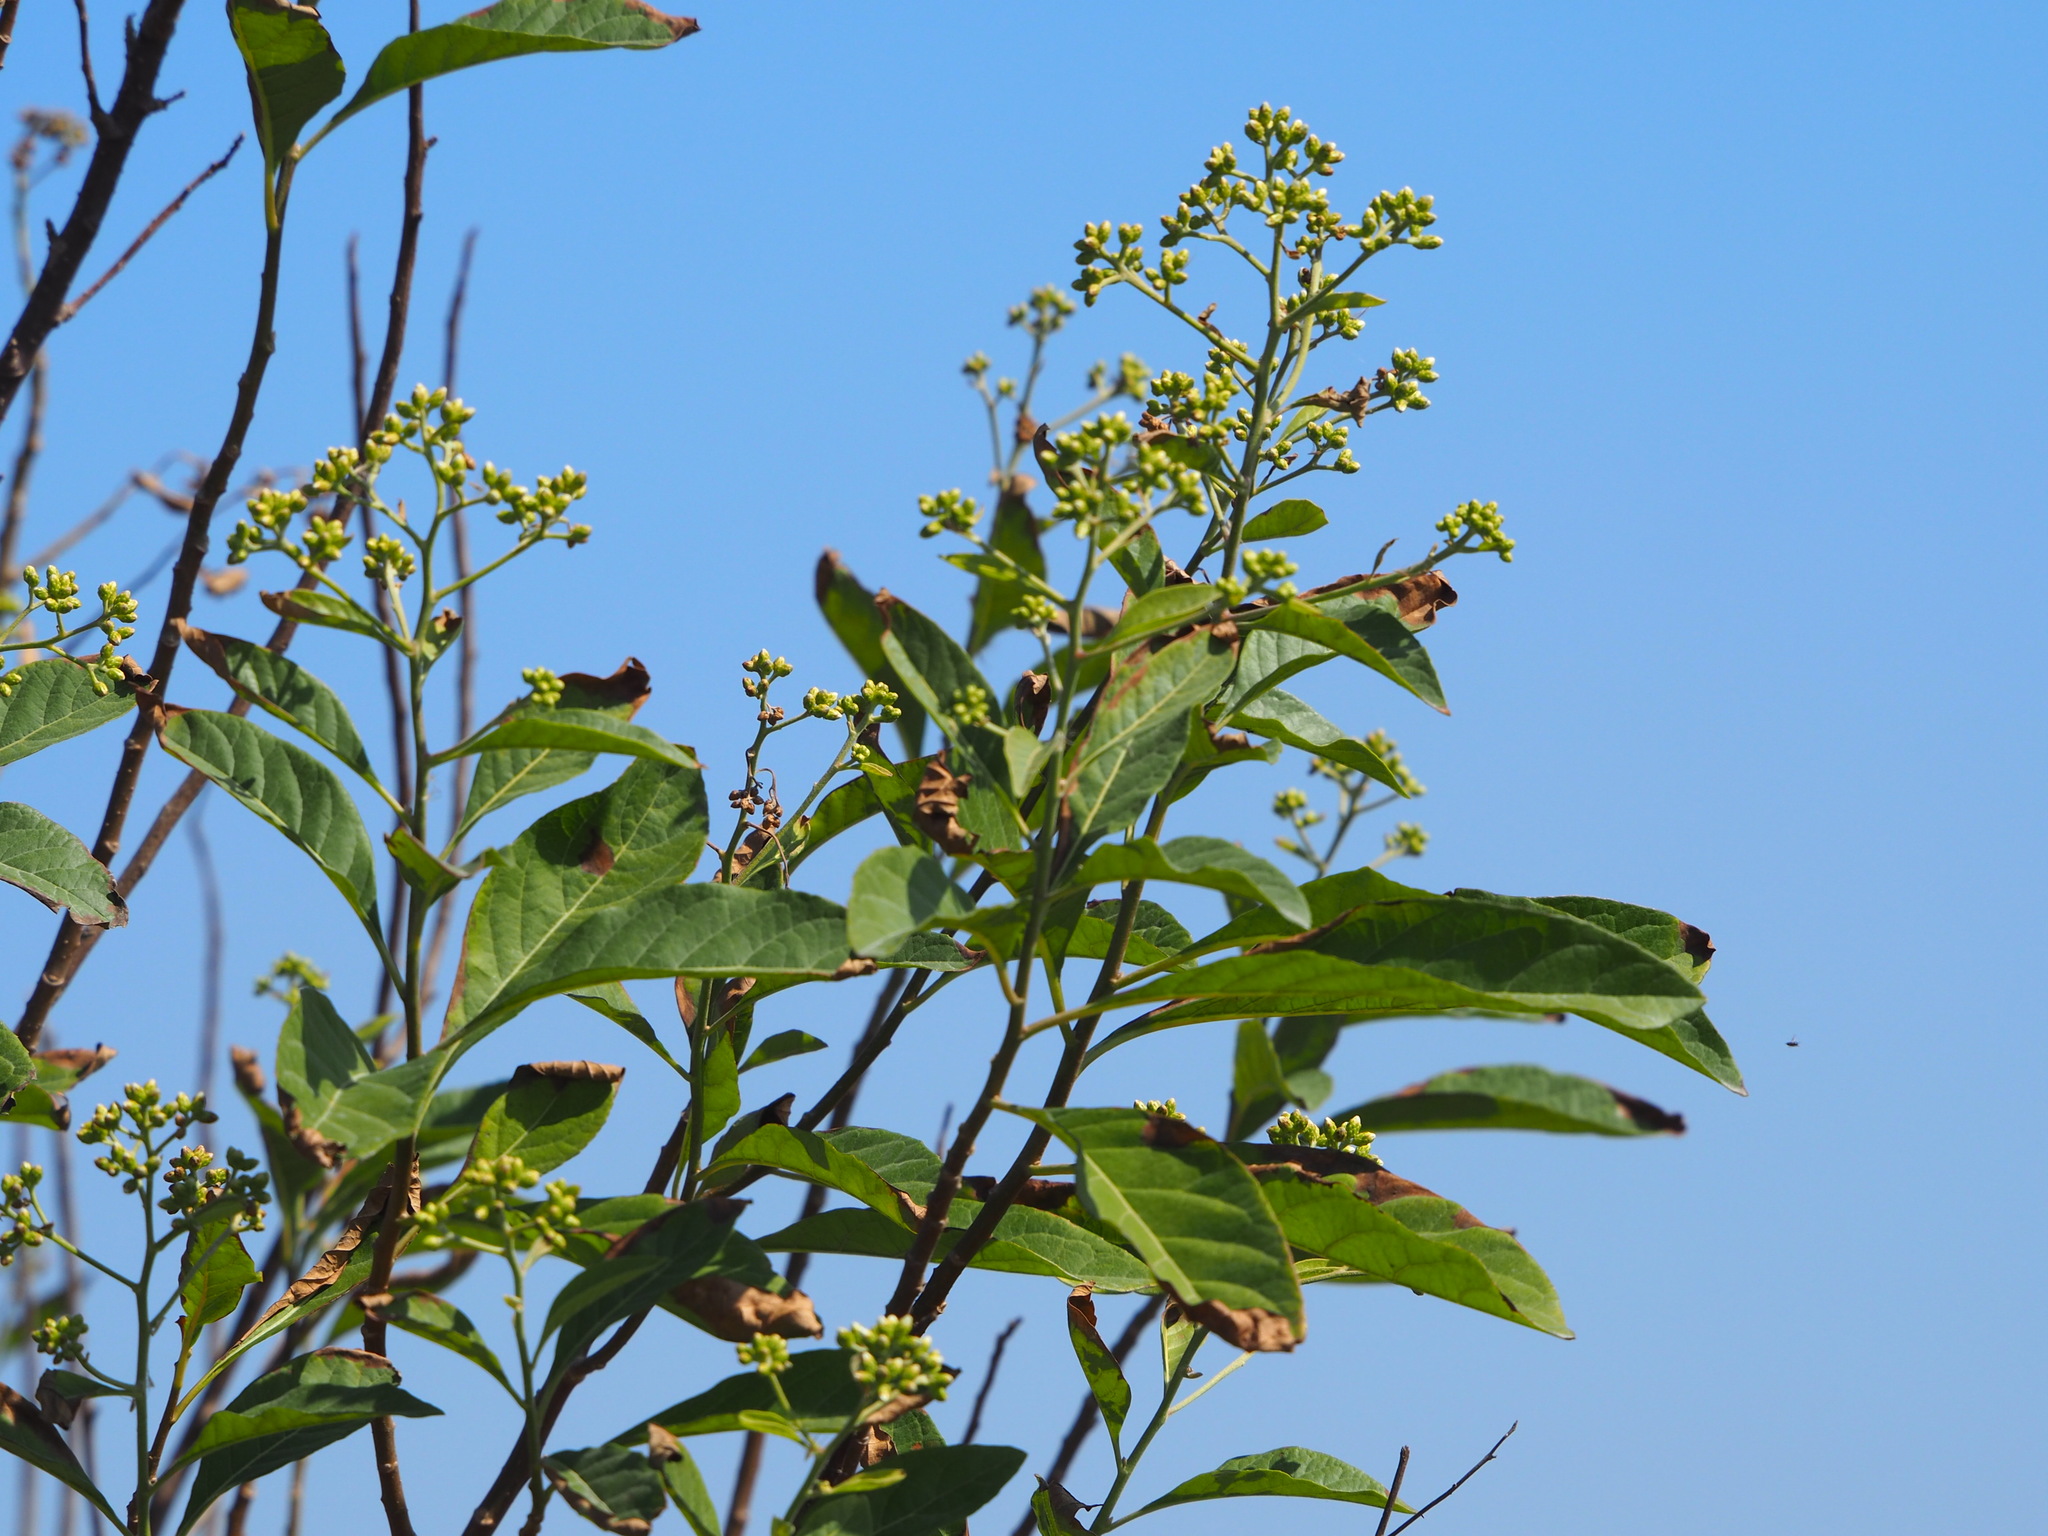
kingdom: Plantae
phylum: Tracheophyta
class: Magnoliopsida
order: Asterales
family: Asteraceae
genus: Gymnanthemum
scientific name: Gymnanthemum amygdalinum
